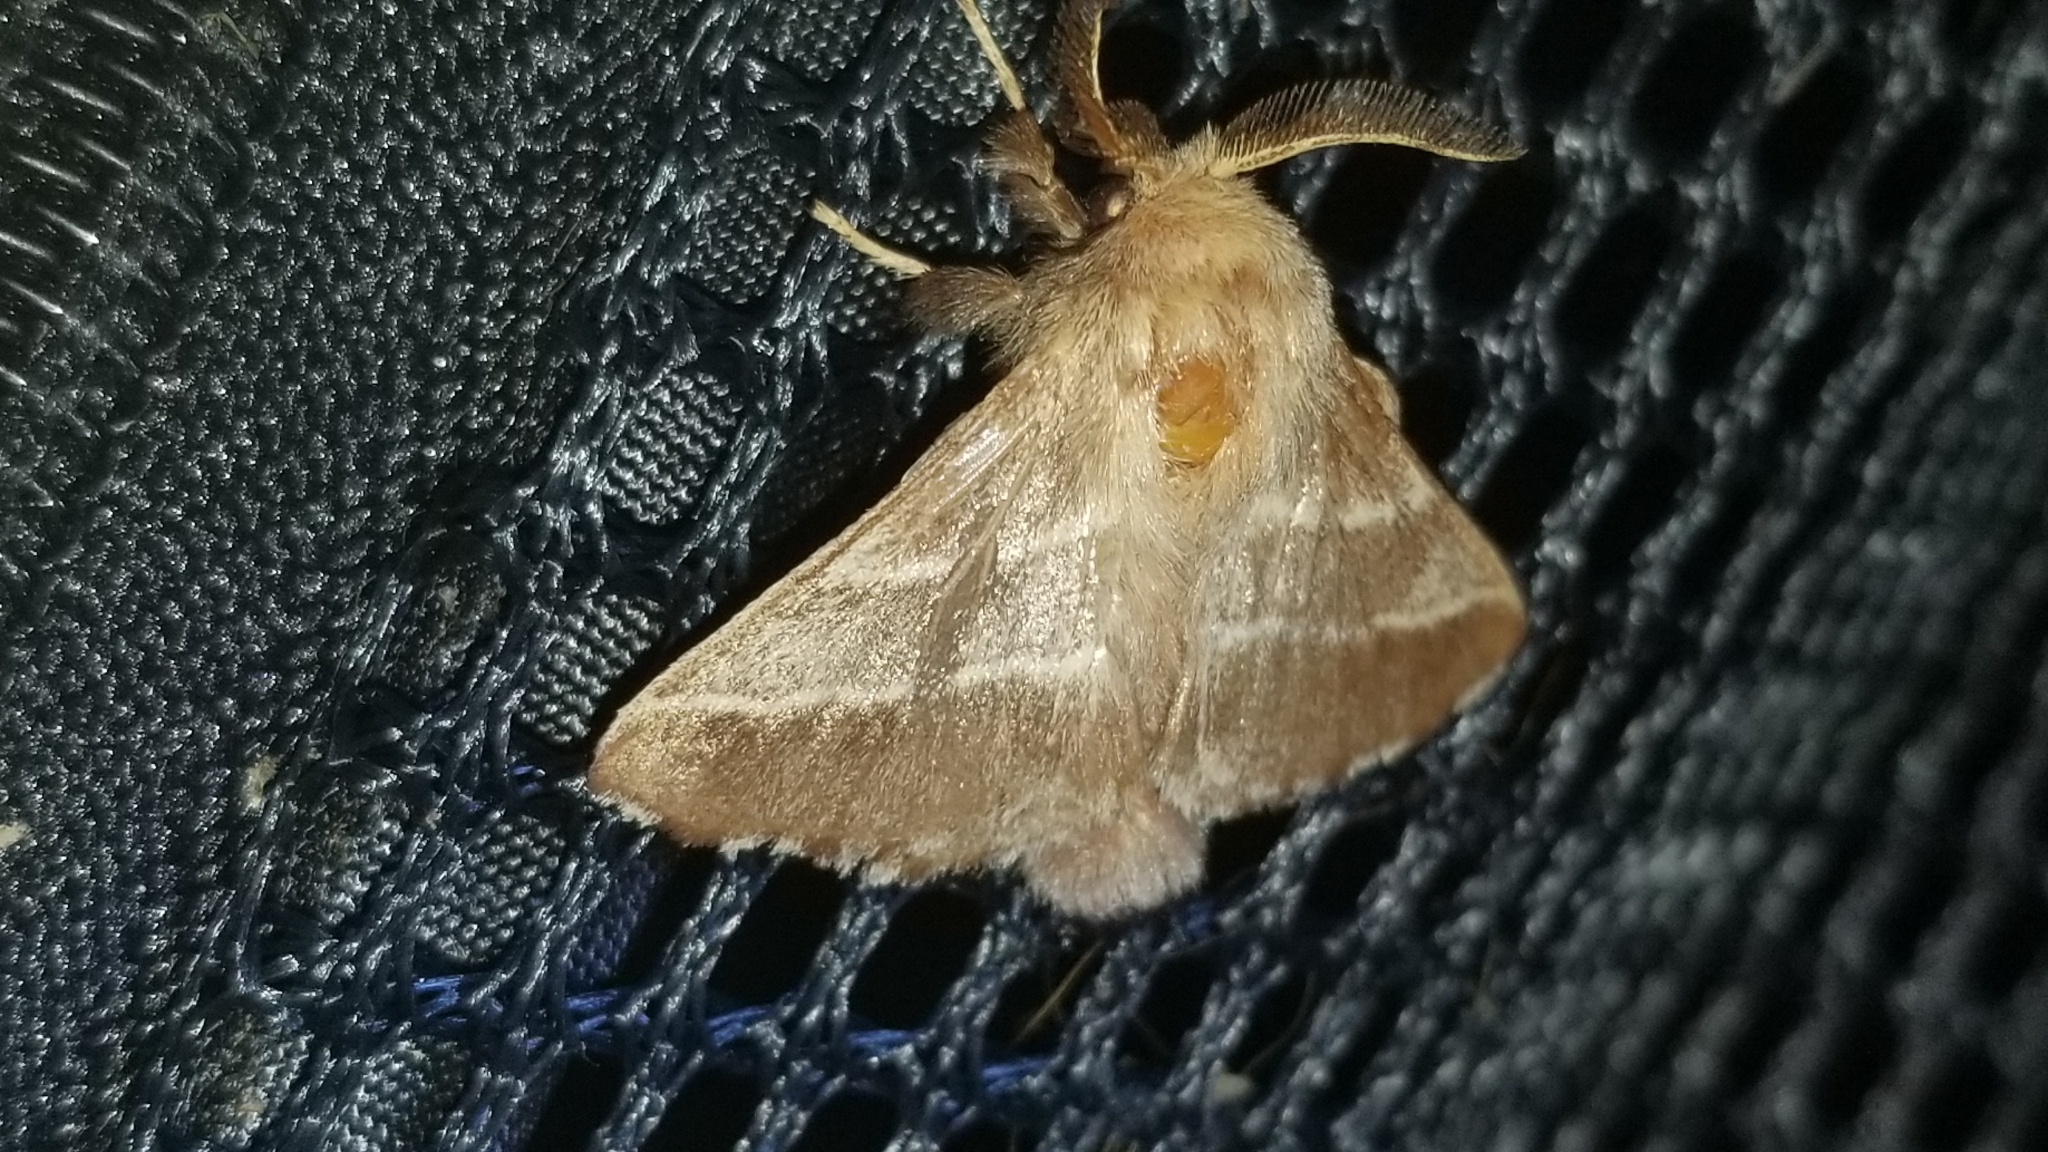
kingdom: Animalia
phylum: Arthropoda
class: Insecta
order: Lepidoptera
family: Lasiocampidae
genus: Malacosoma
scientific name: Malacosoma americana
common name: Eastern tent caterpillar moth
